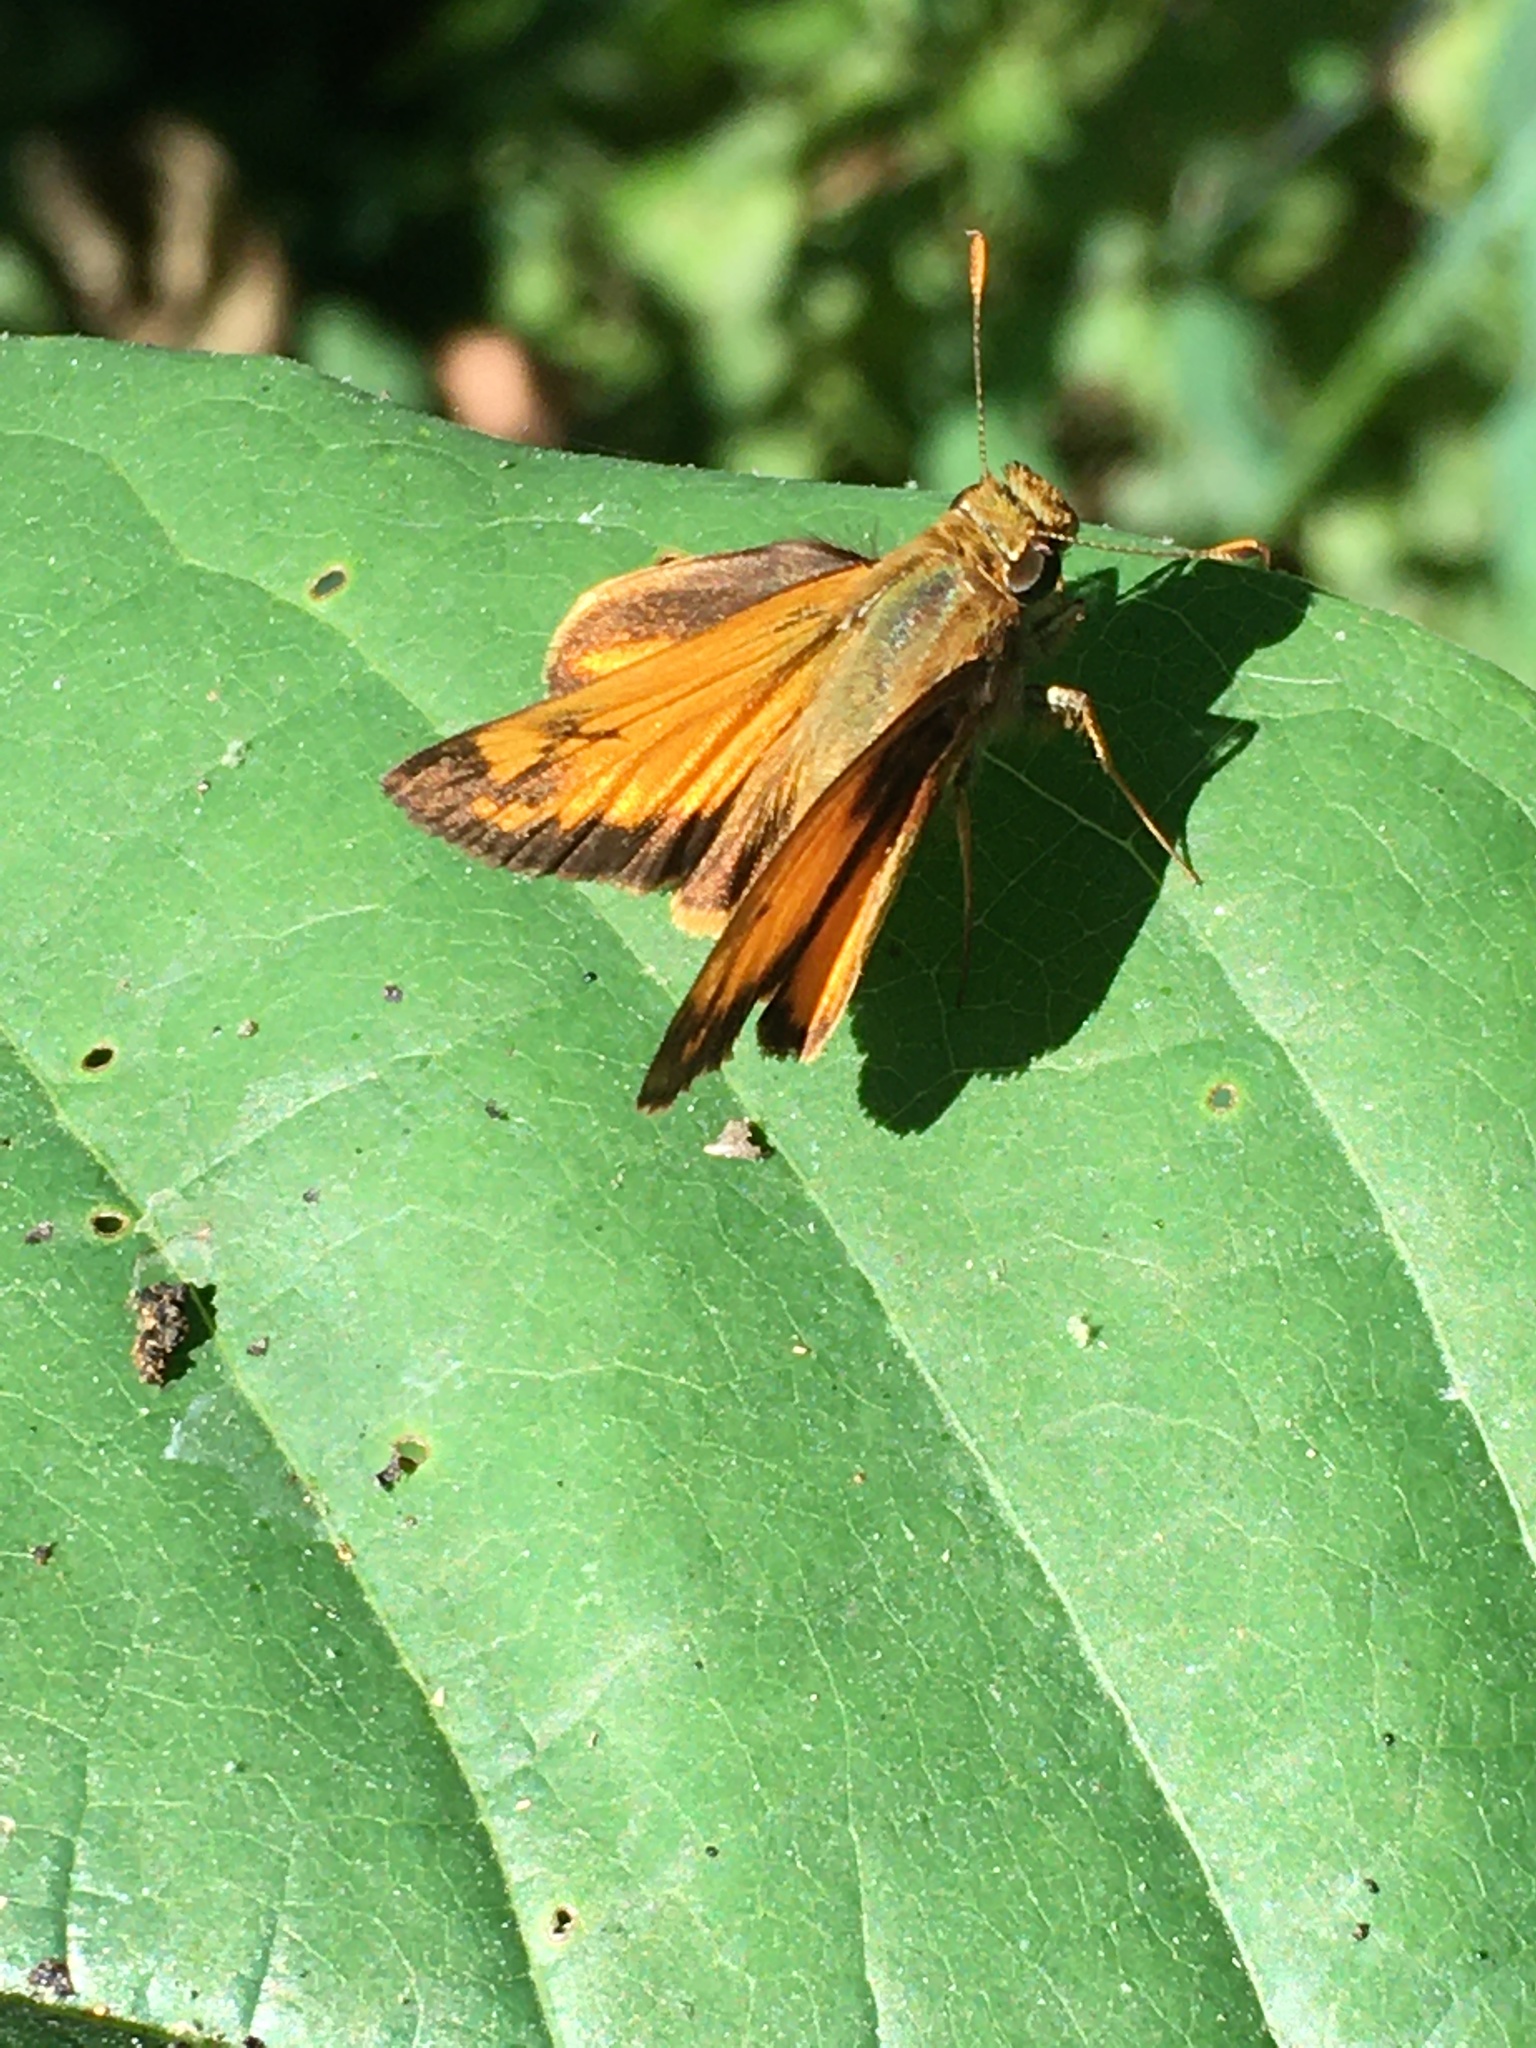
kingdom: Animalia
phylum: Arthropoda
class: Insecta
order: Lepidoptera
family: Hesperiidae
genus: Lon
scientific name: Lon zabulon
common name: Zabulon skipper
